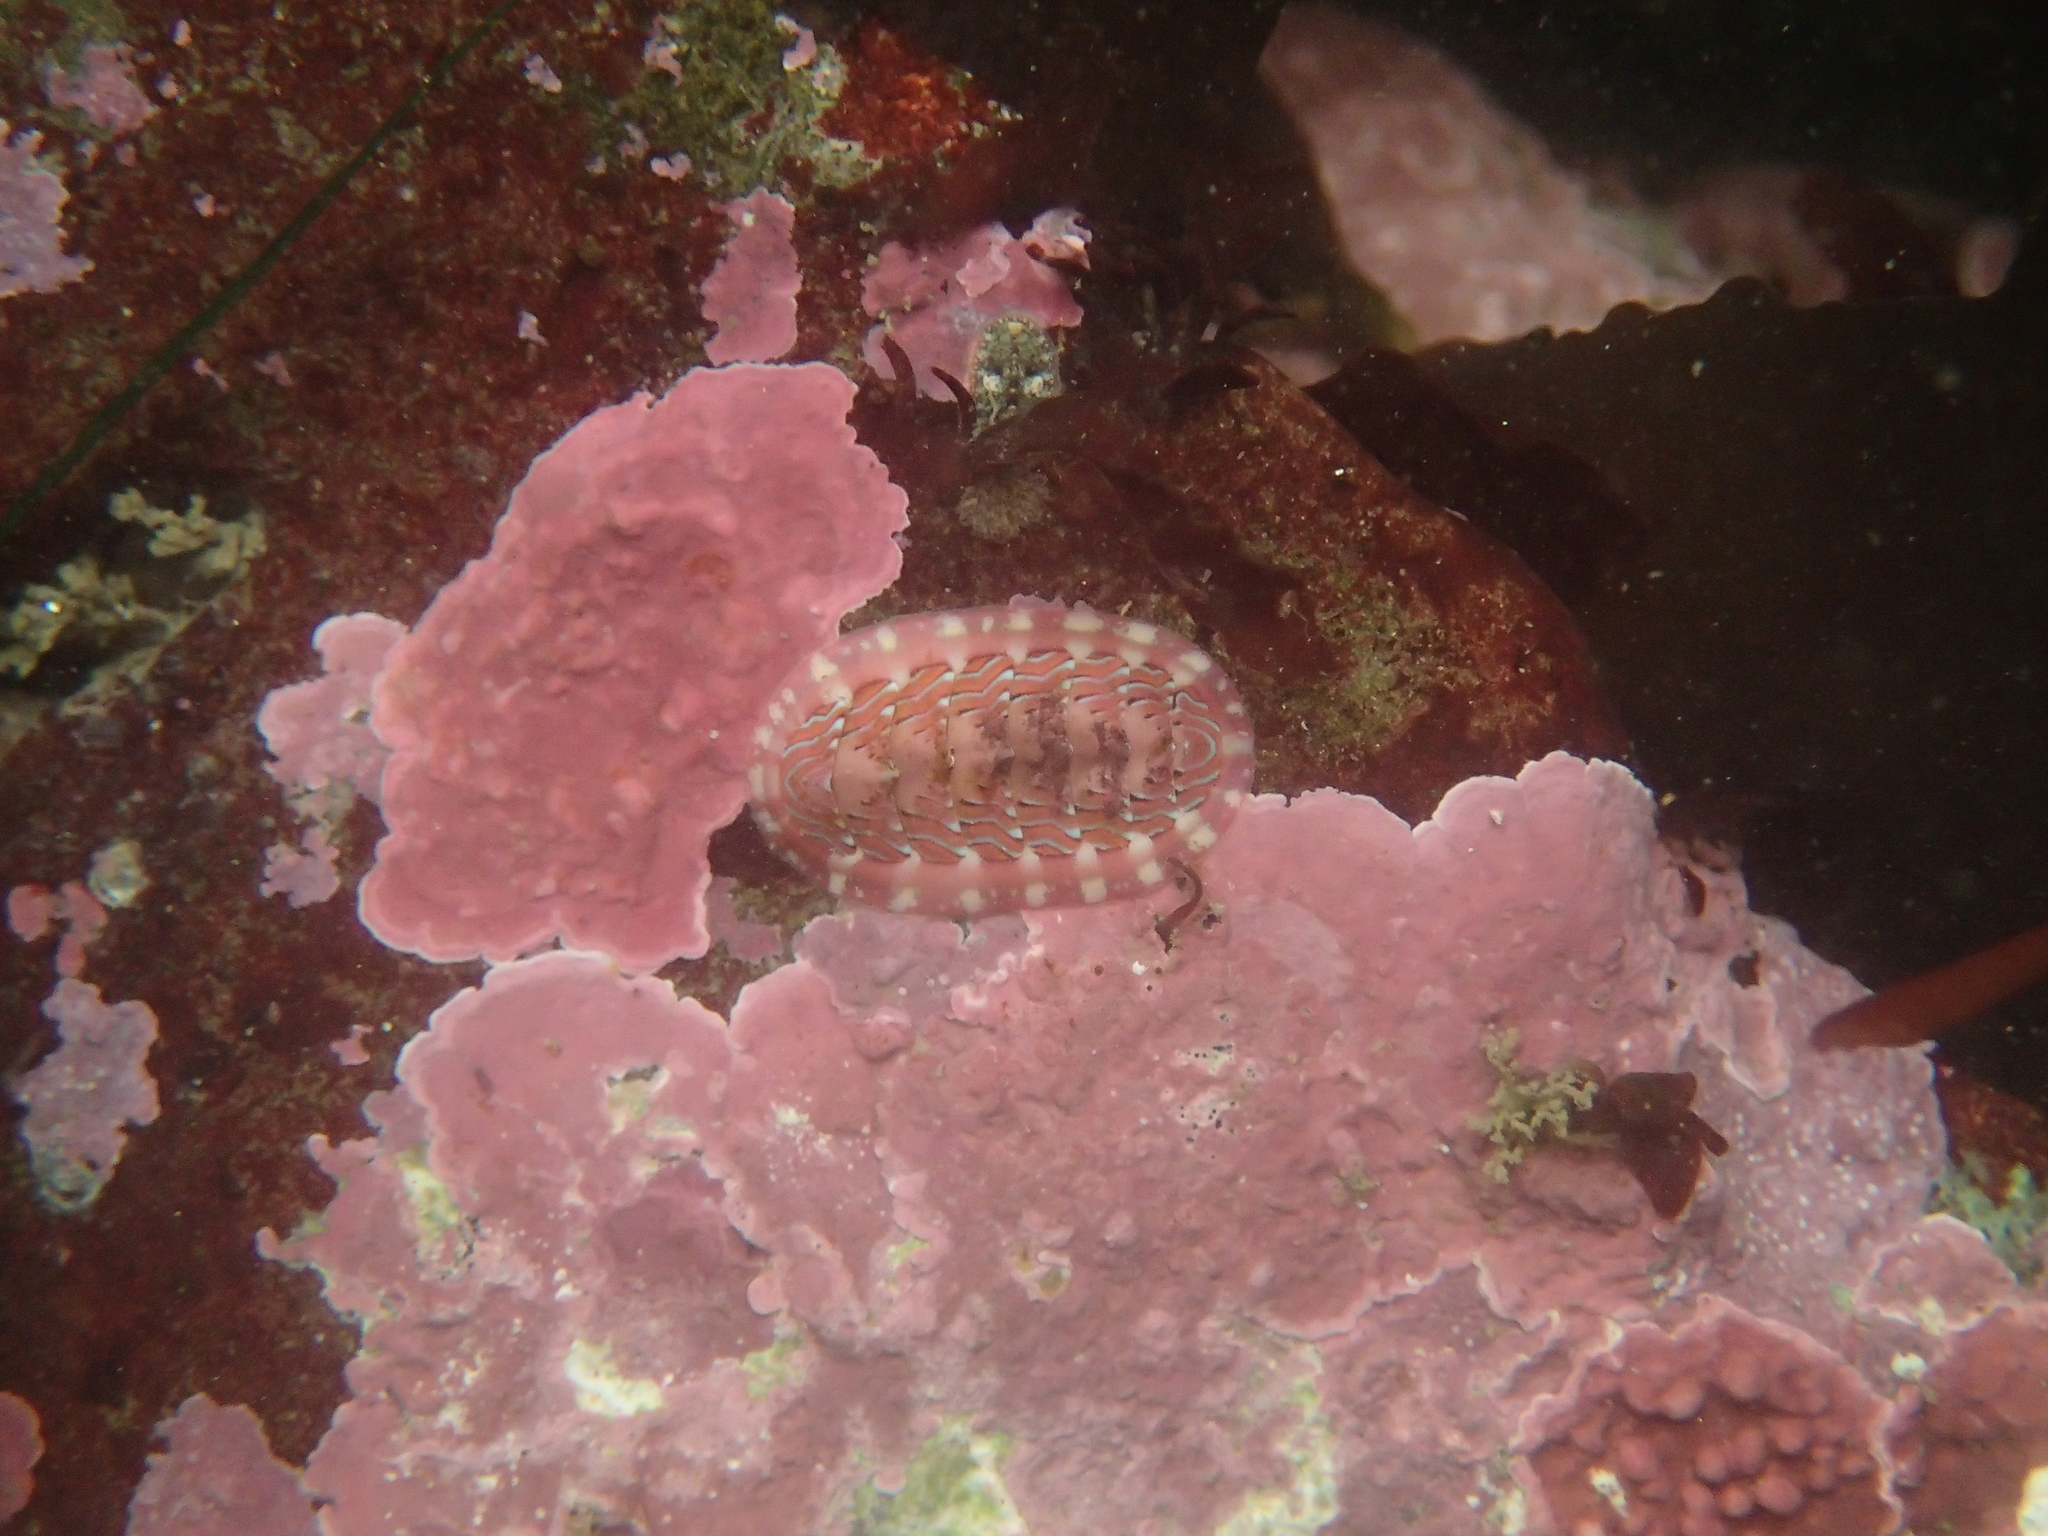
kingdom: Animalia
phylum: Mollusca
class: Polyplacophora
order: Chitonida
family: Tonicellidae
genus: Tonicella
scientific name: Tonicella lineata
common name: Lined chiton
